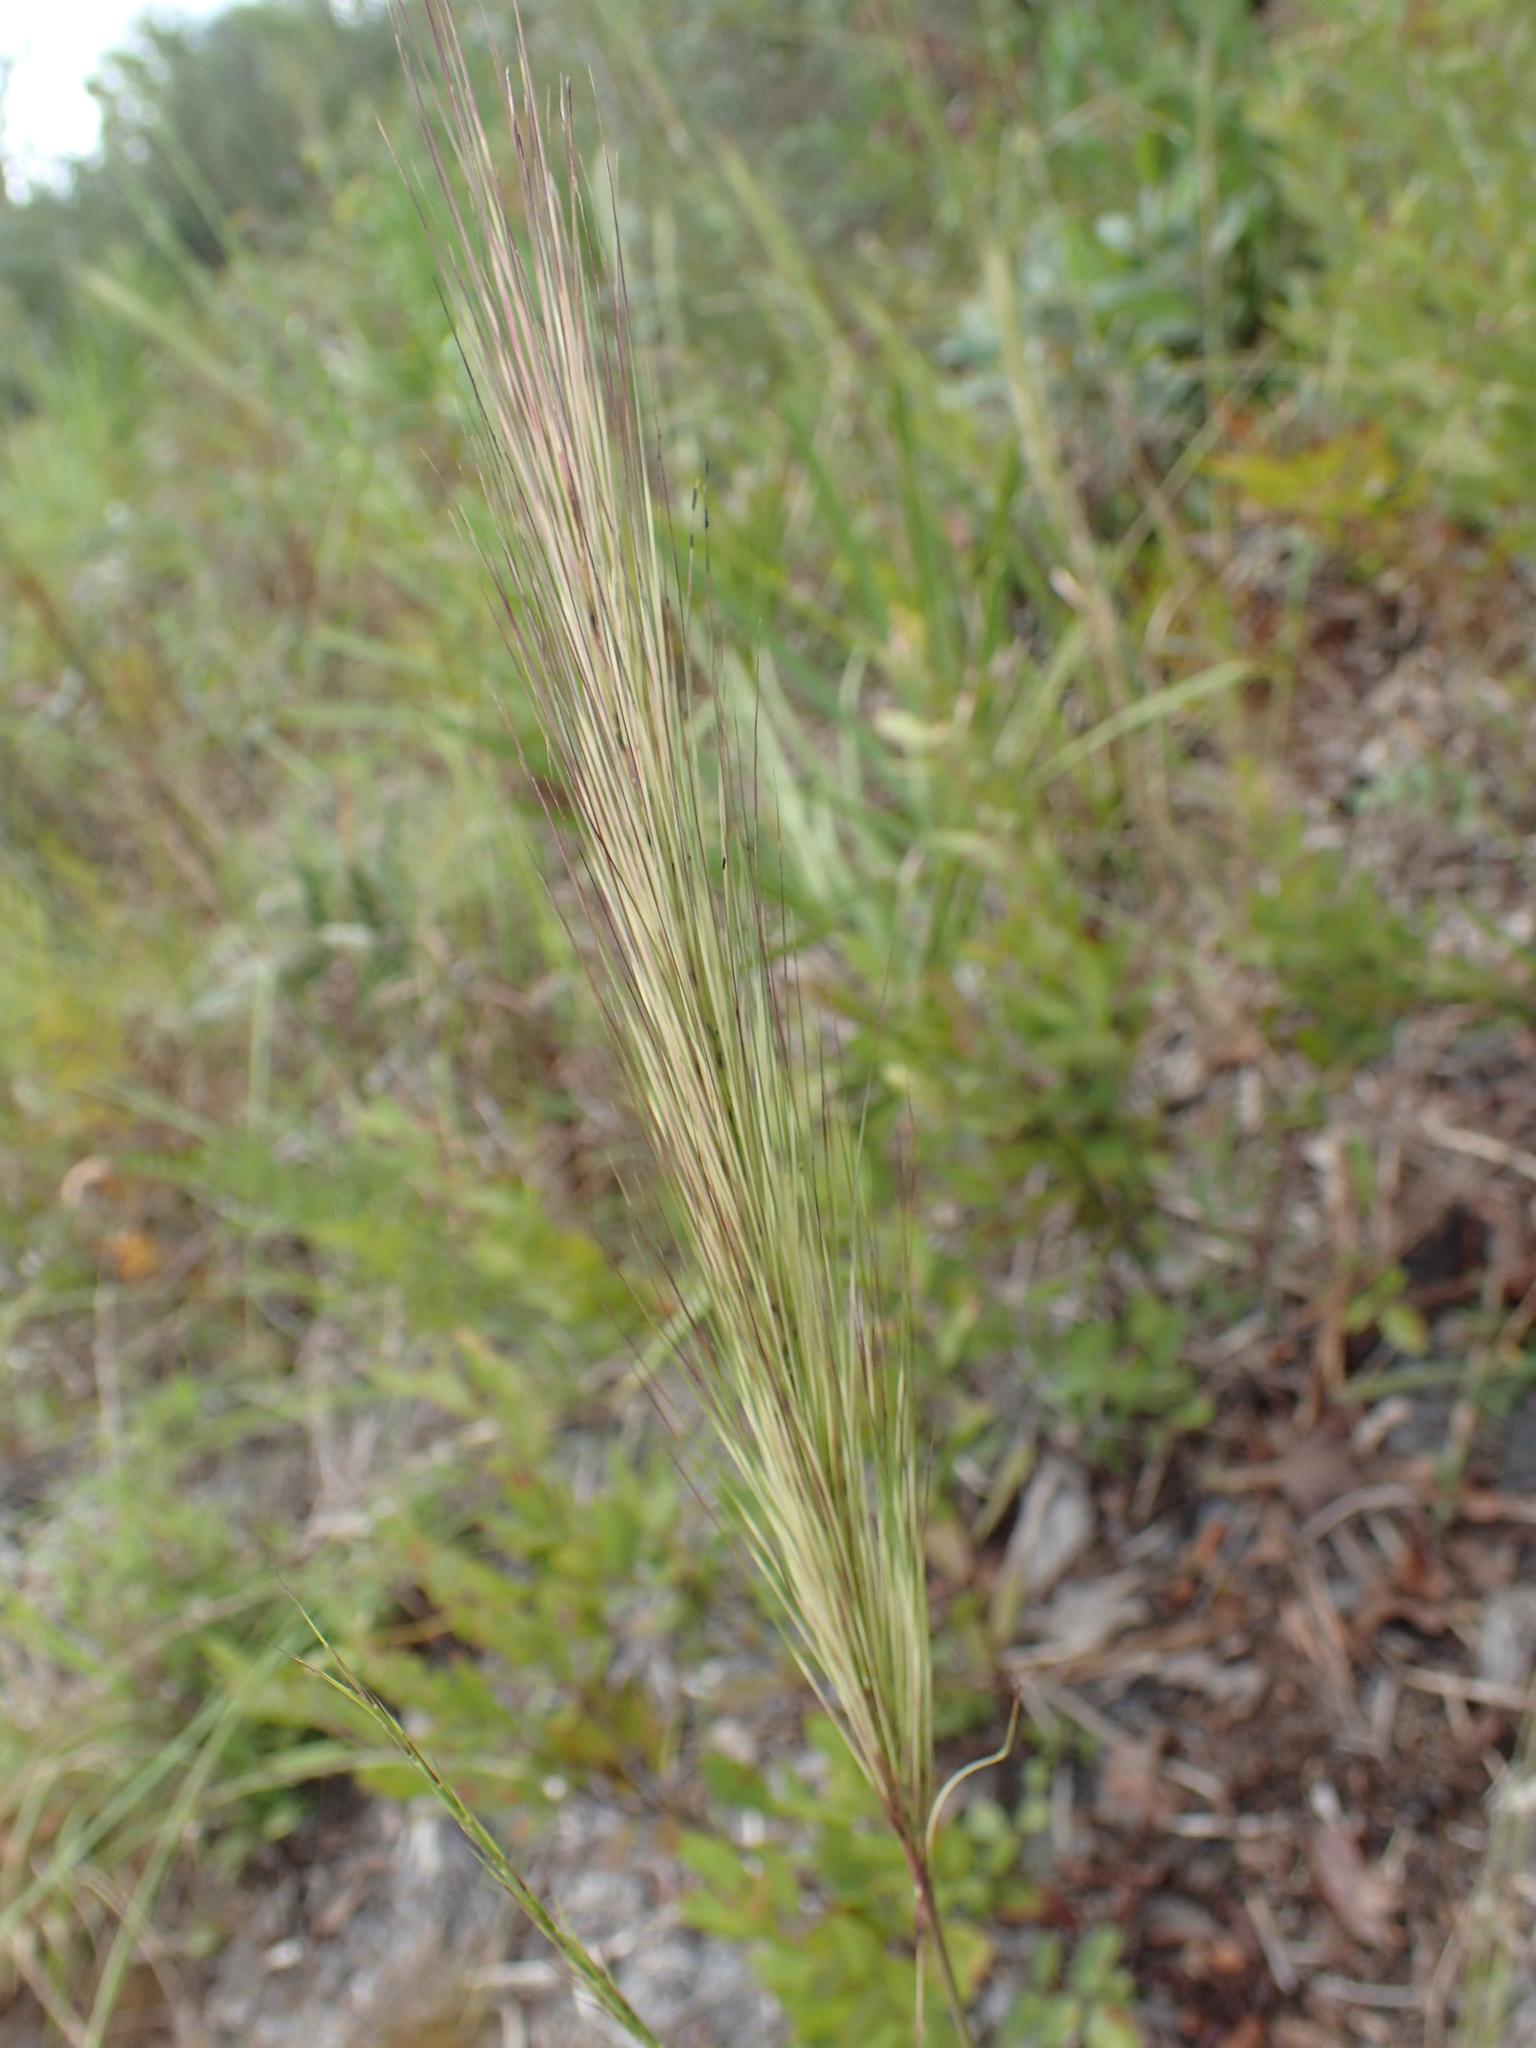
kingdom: Plantae
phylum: Tracheophyta
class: Liliopsida
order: Poales
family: Poaceae
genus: Aristida
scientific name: Aristida spiciformis
